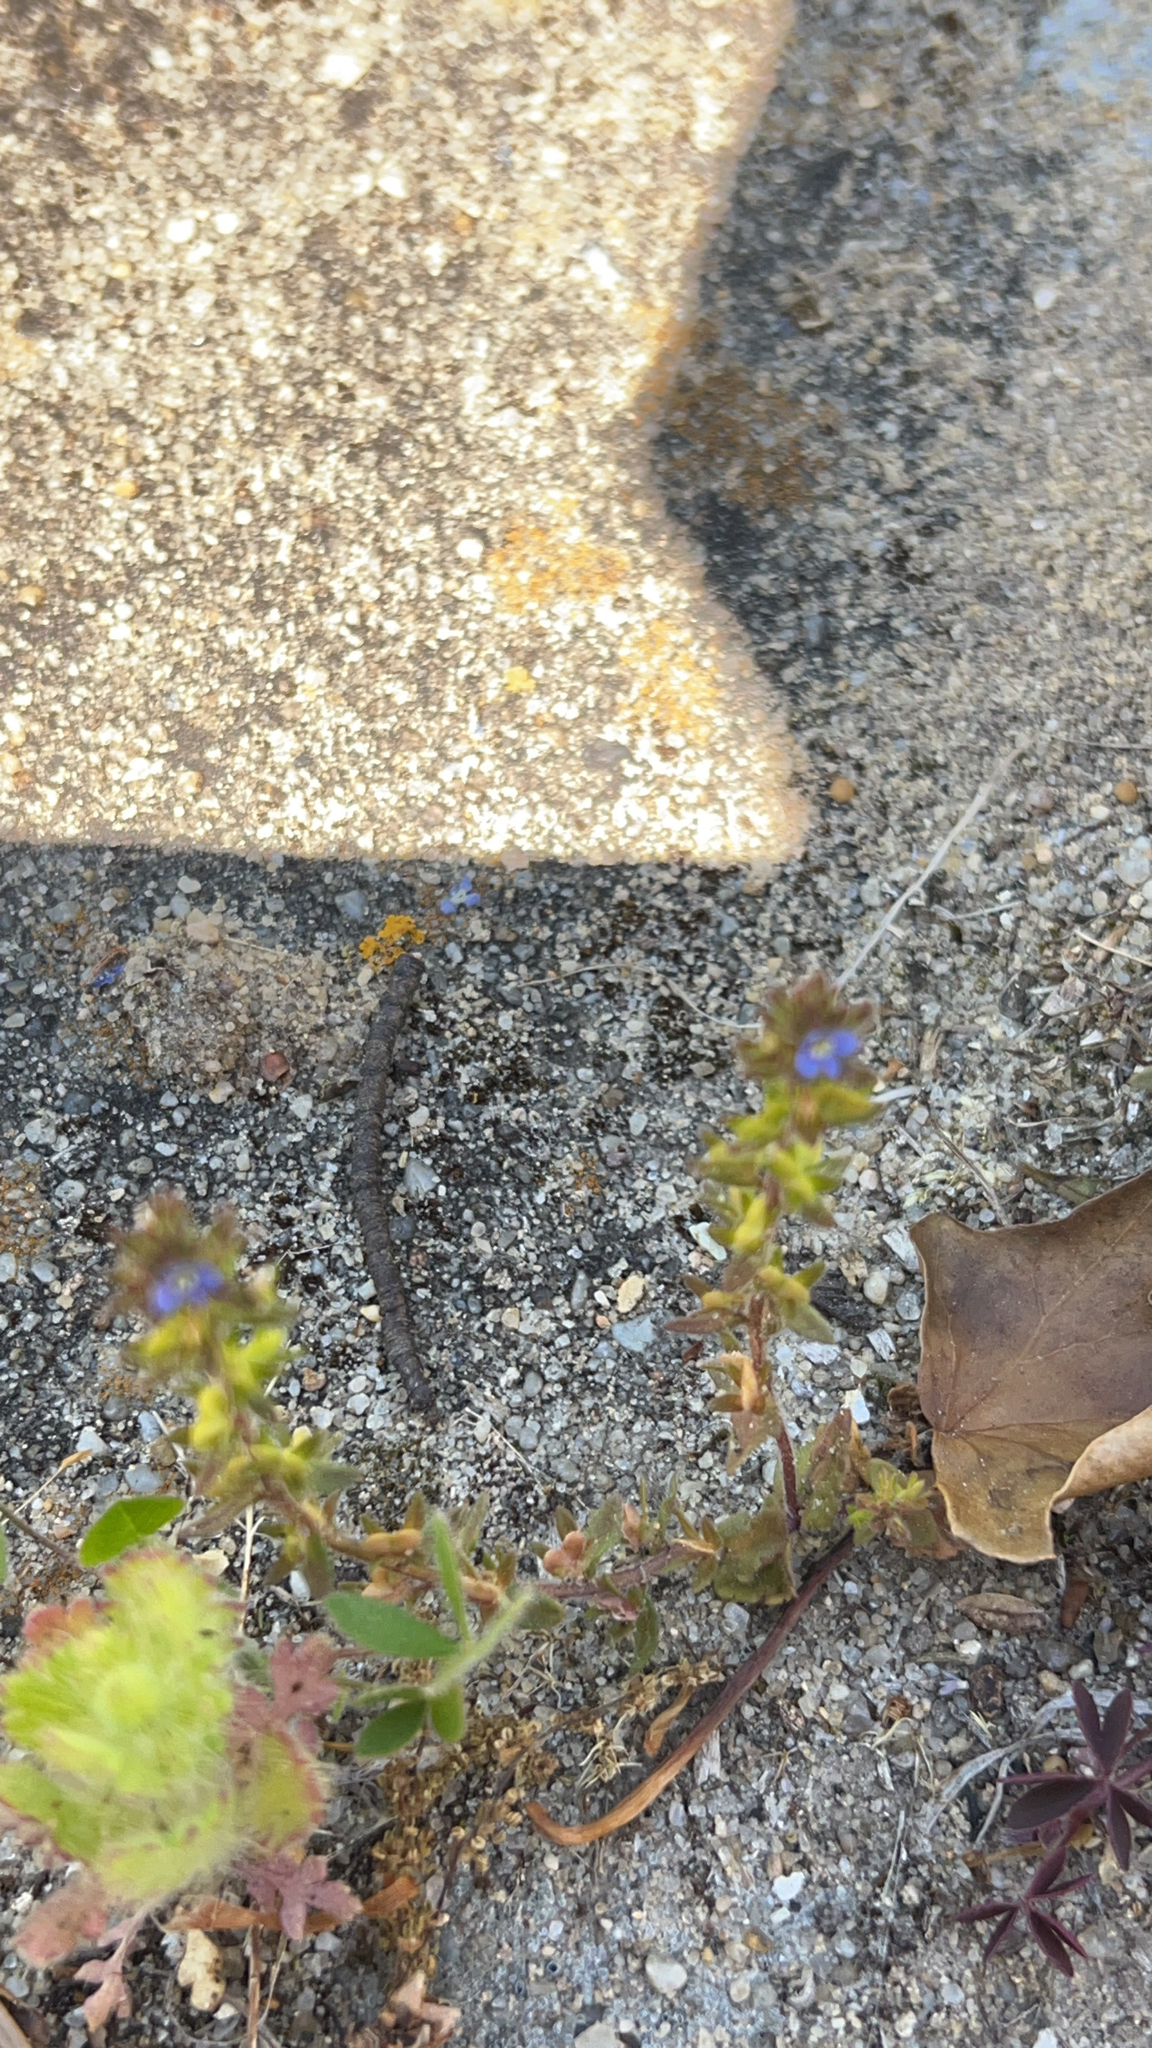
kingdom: Plantae
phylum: Tracheophyta
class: Magnoliopsida
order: Lamiales
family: Plantaginaceae
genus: Veronica
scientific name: Veronica arvensis
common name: Corn speedwell
